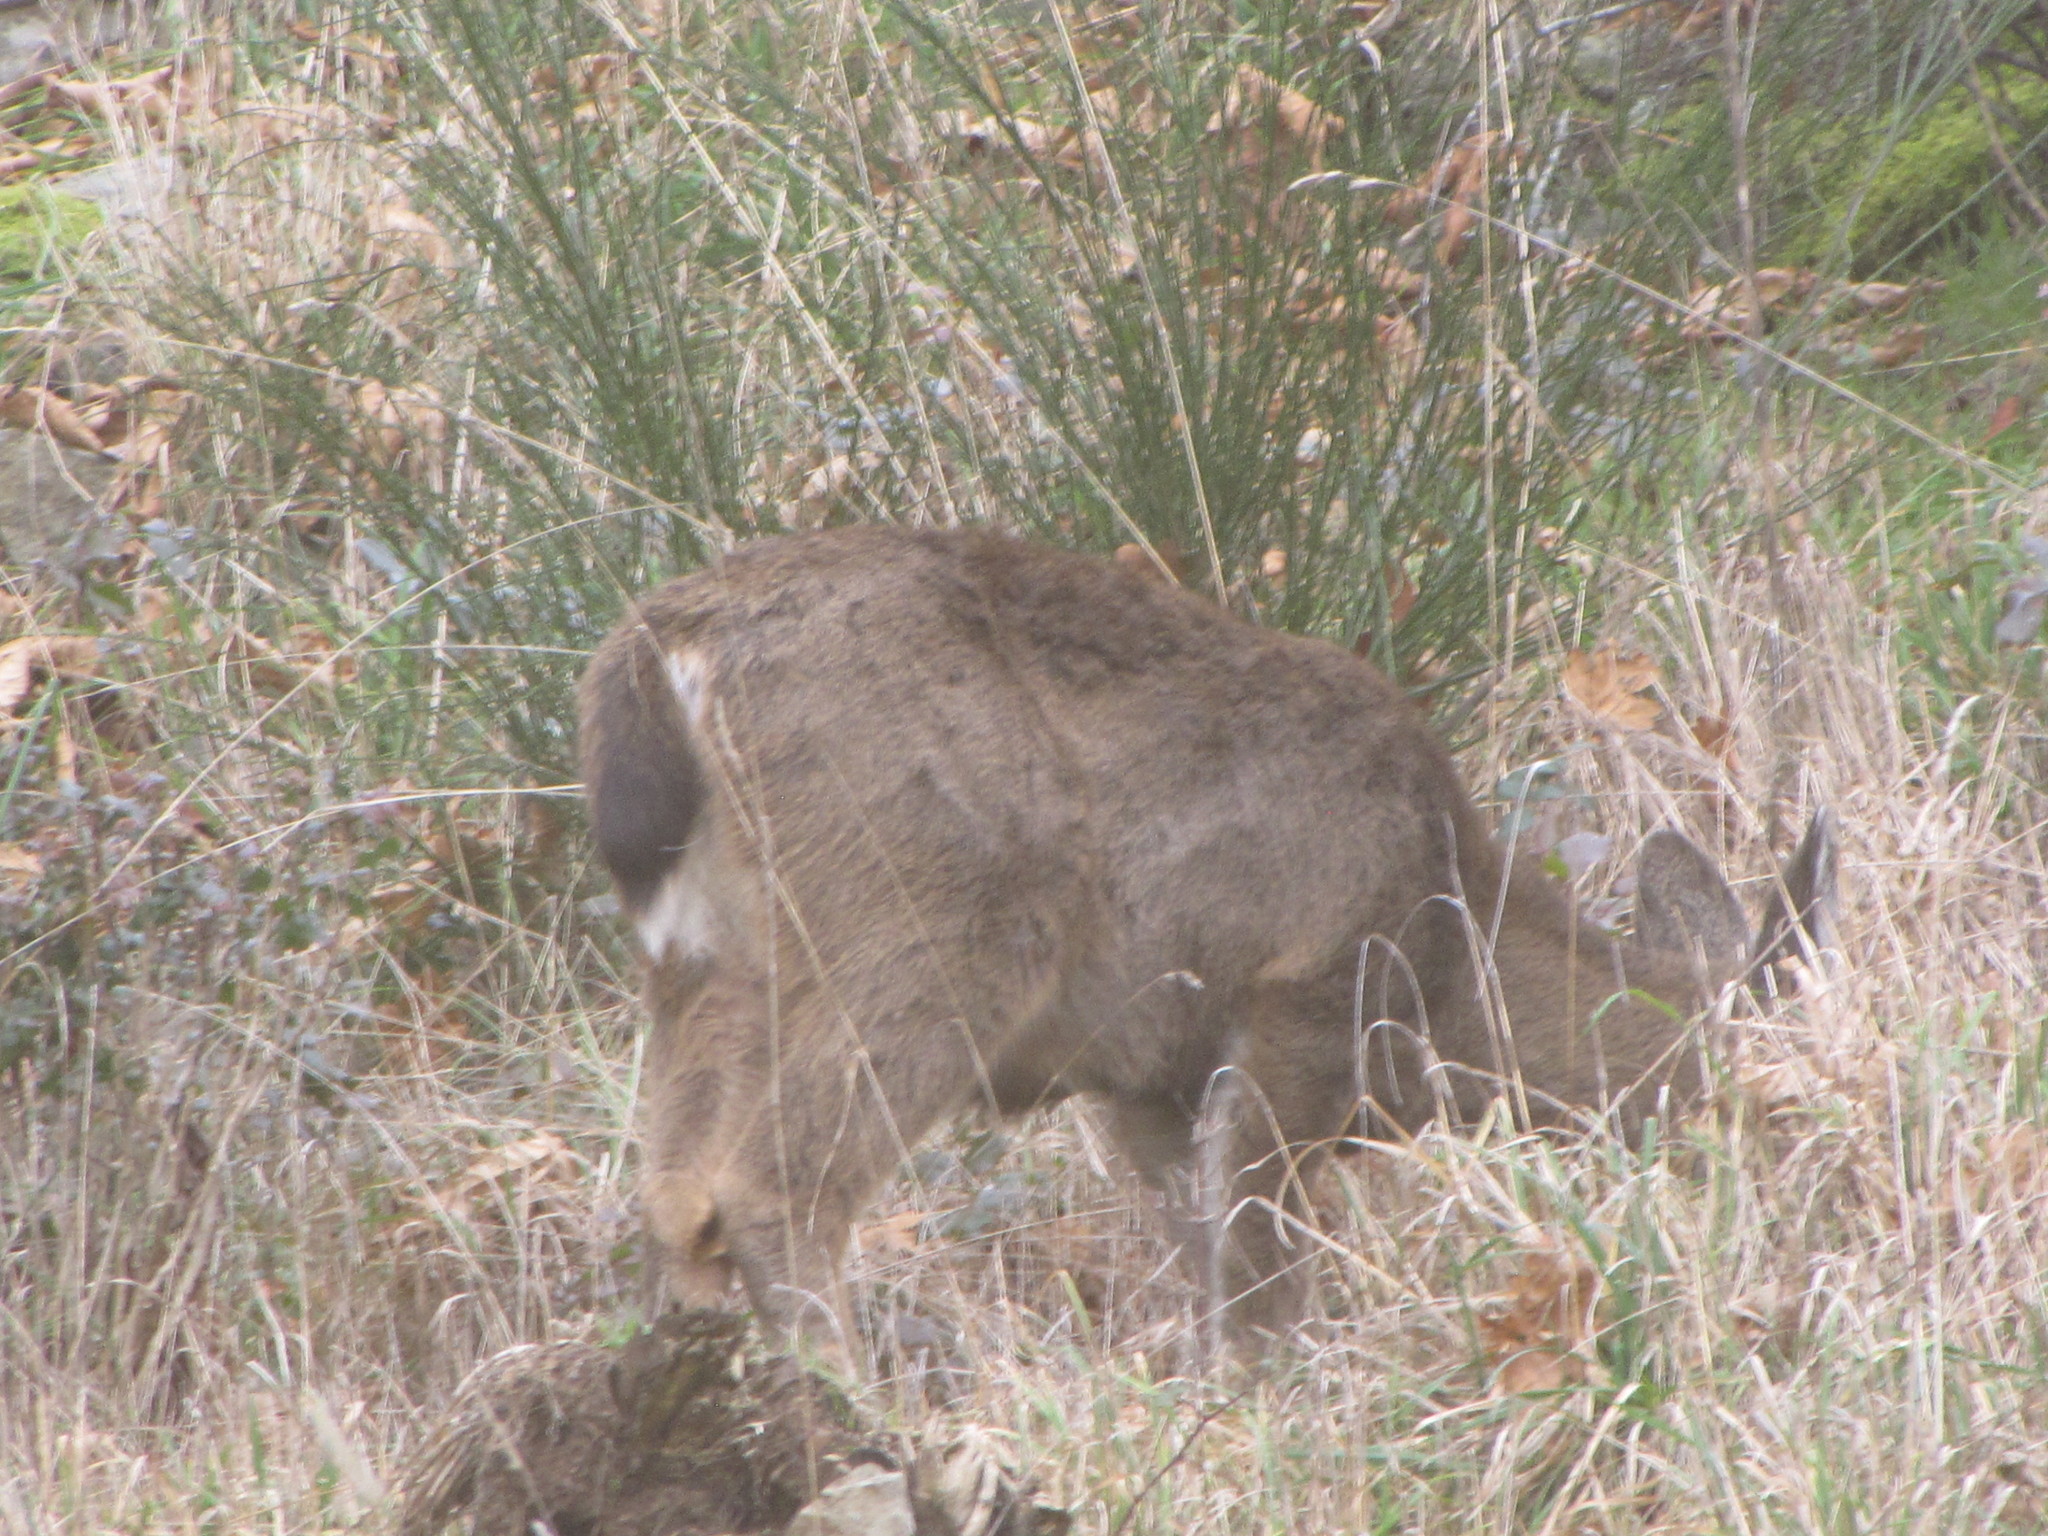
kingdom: Animalia
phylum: Chordata
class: Mammalia
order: Artiodactyla
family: Cervidae
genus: Odocoileus
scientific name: Odocoileus hemionus
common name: Mule deer
